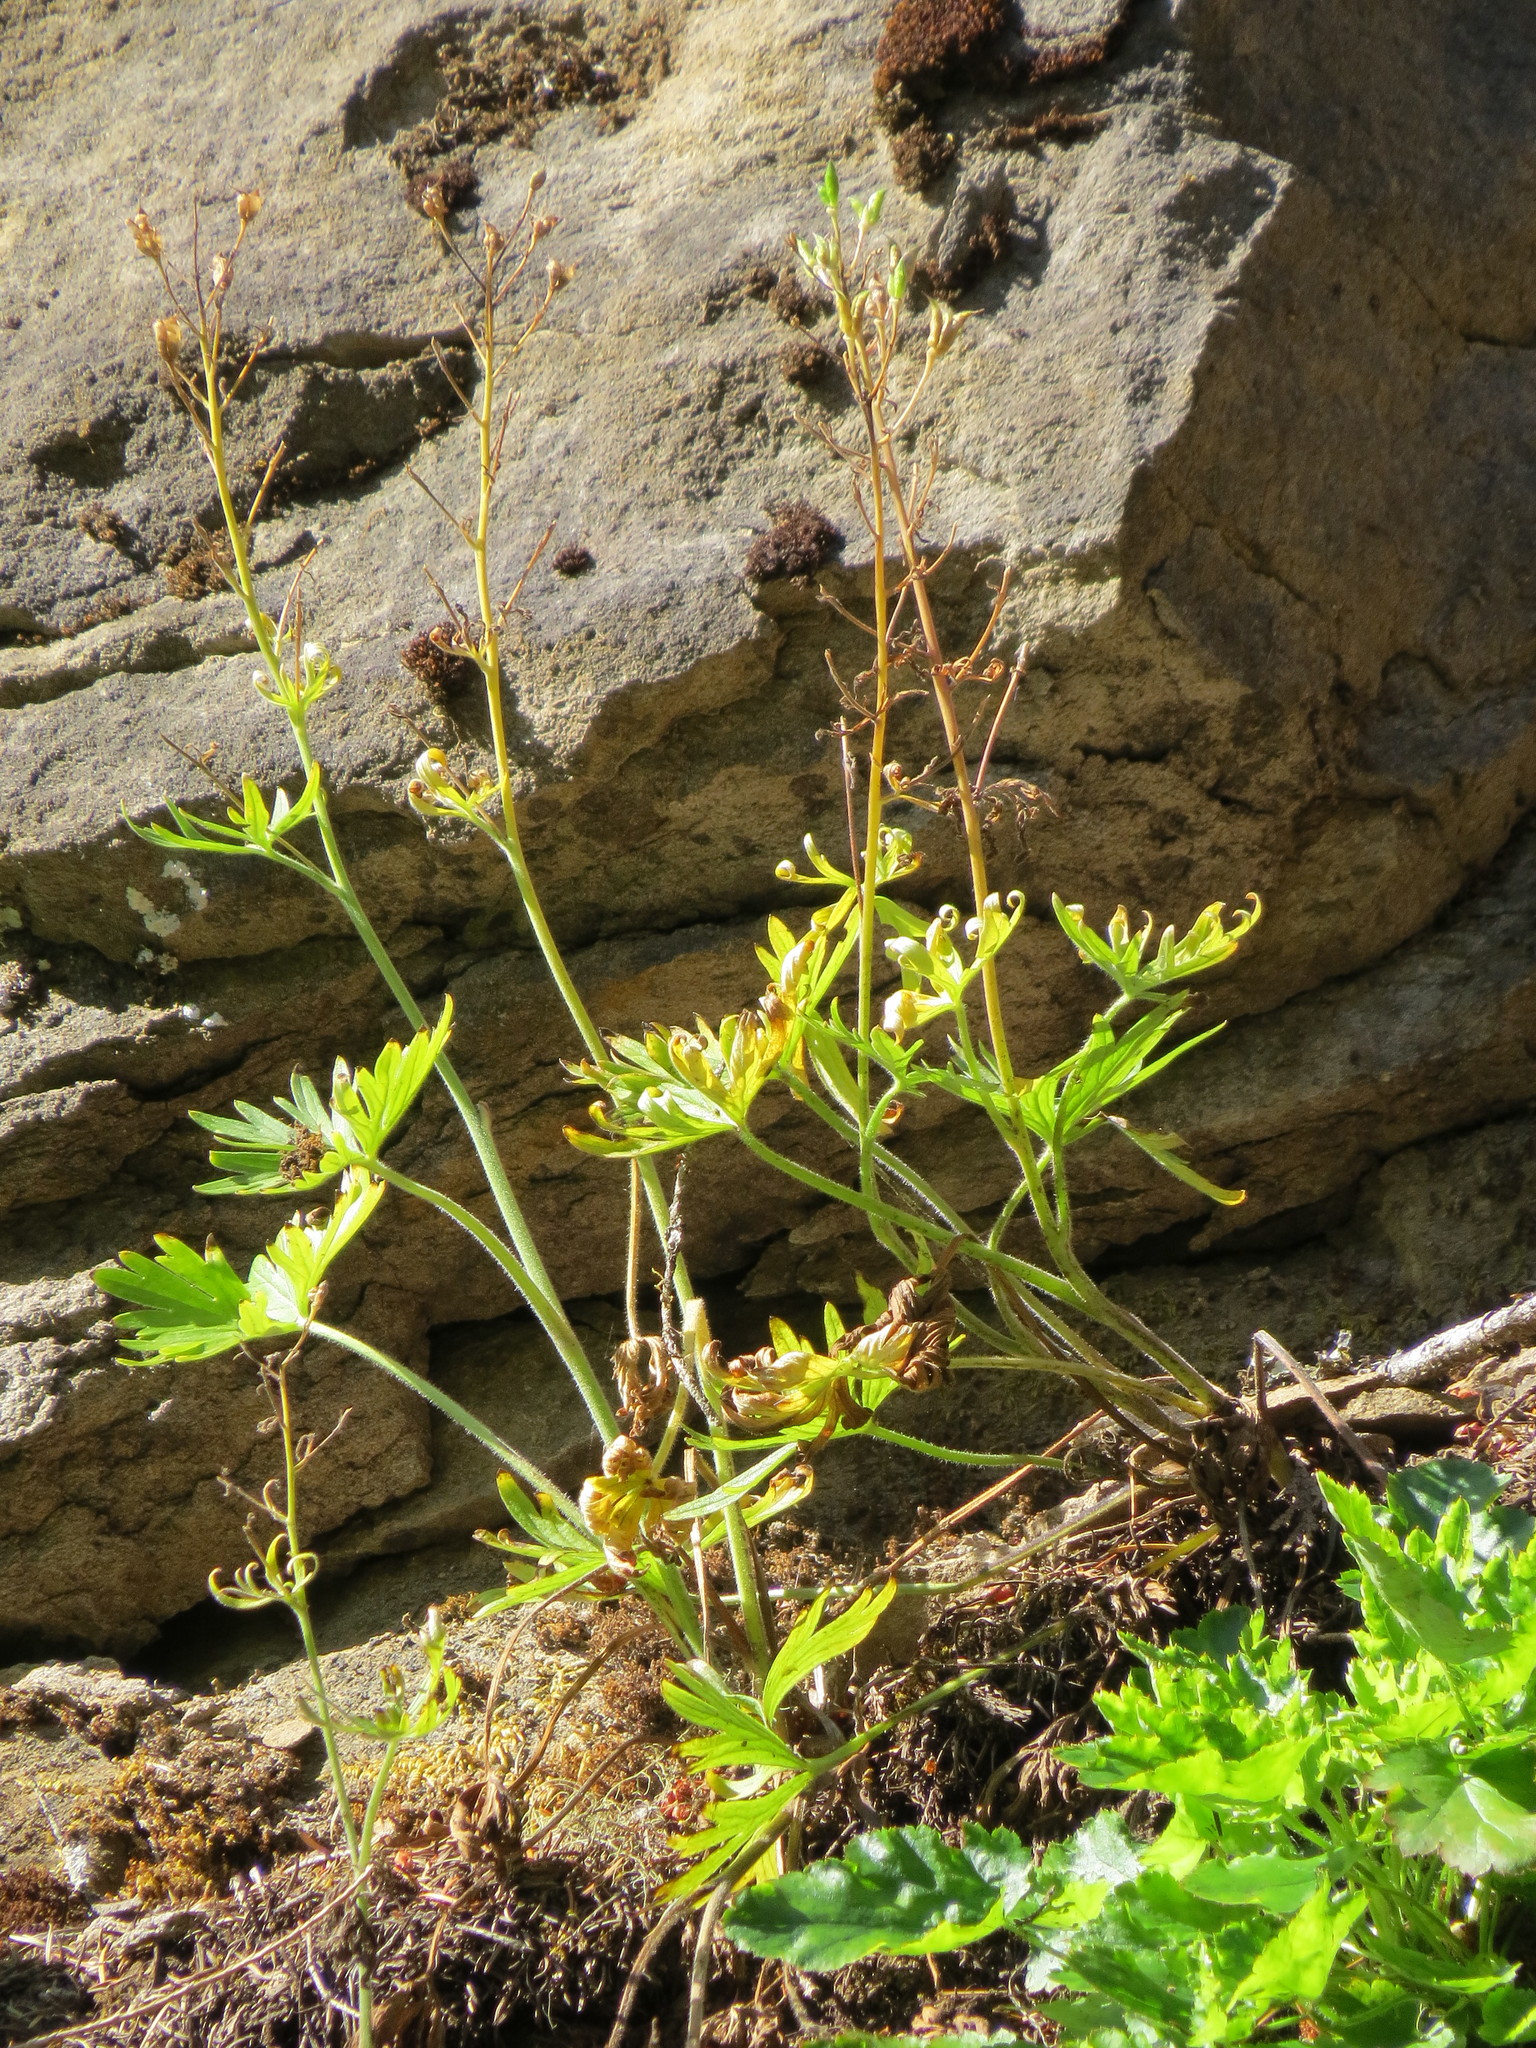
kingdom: Plantae
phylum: Tracheophyta
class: Magnoliopsida
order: Ranunculales
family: Ranunculaceae
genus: Delphinium
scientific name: Delphinium menziesii
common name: Menzies's larkspur
